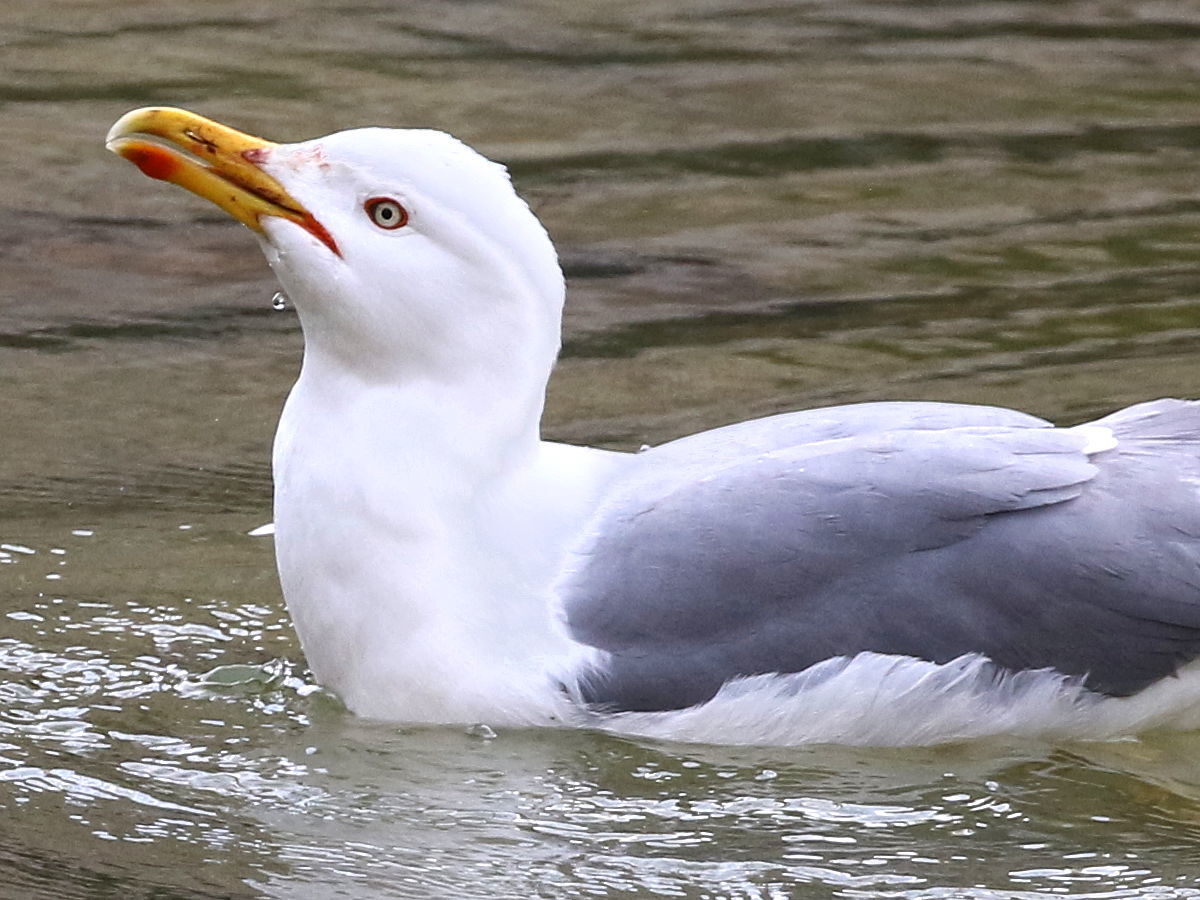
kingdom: Animalia
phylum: Chordata
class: Aves
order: Charadriiformes
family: Laridae
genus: Larus
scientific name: Larus michahellis
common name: Yellow-legged gull
